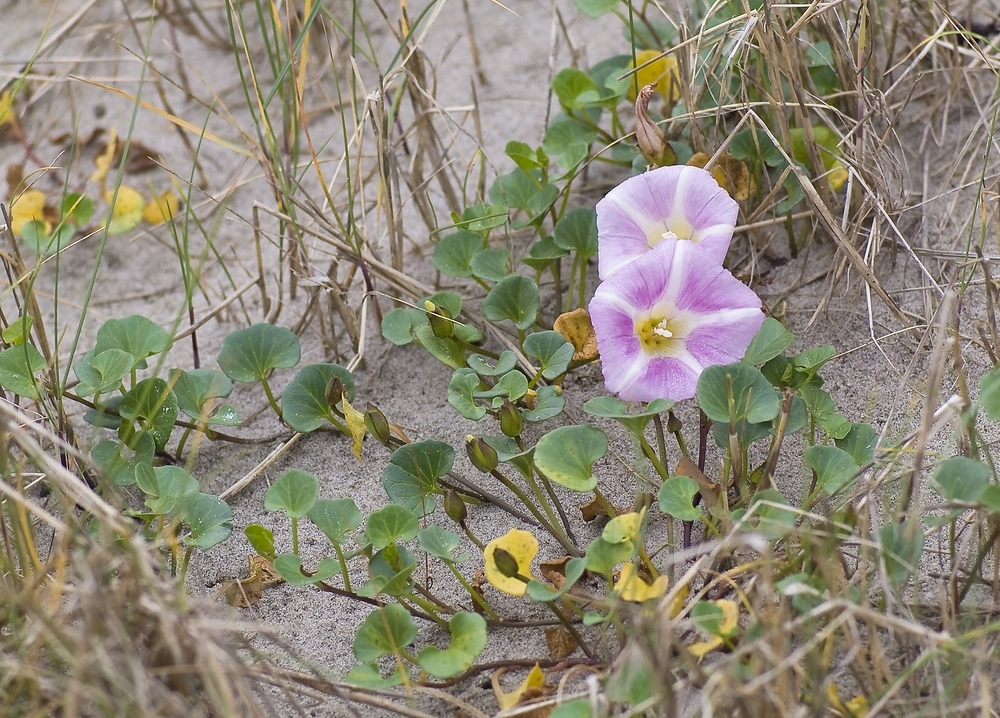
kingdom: Plantae
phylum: Tracheophyta
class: Magnoliopsida
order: Solanales
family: Convolvulaceae
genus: Calystegia
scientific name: Calystegia soldanella
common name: Sea bindweed
